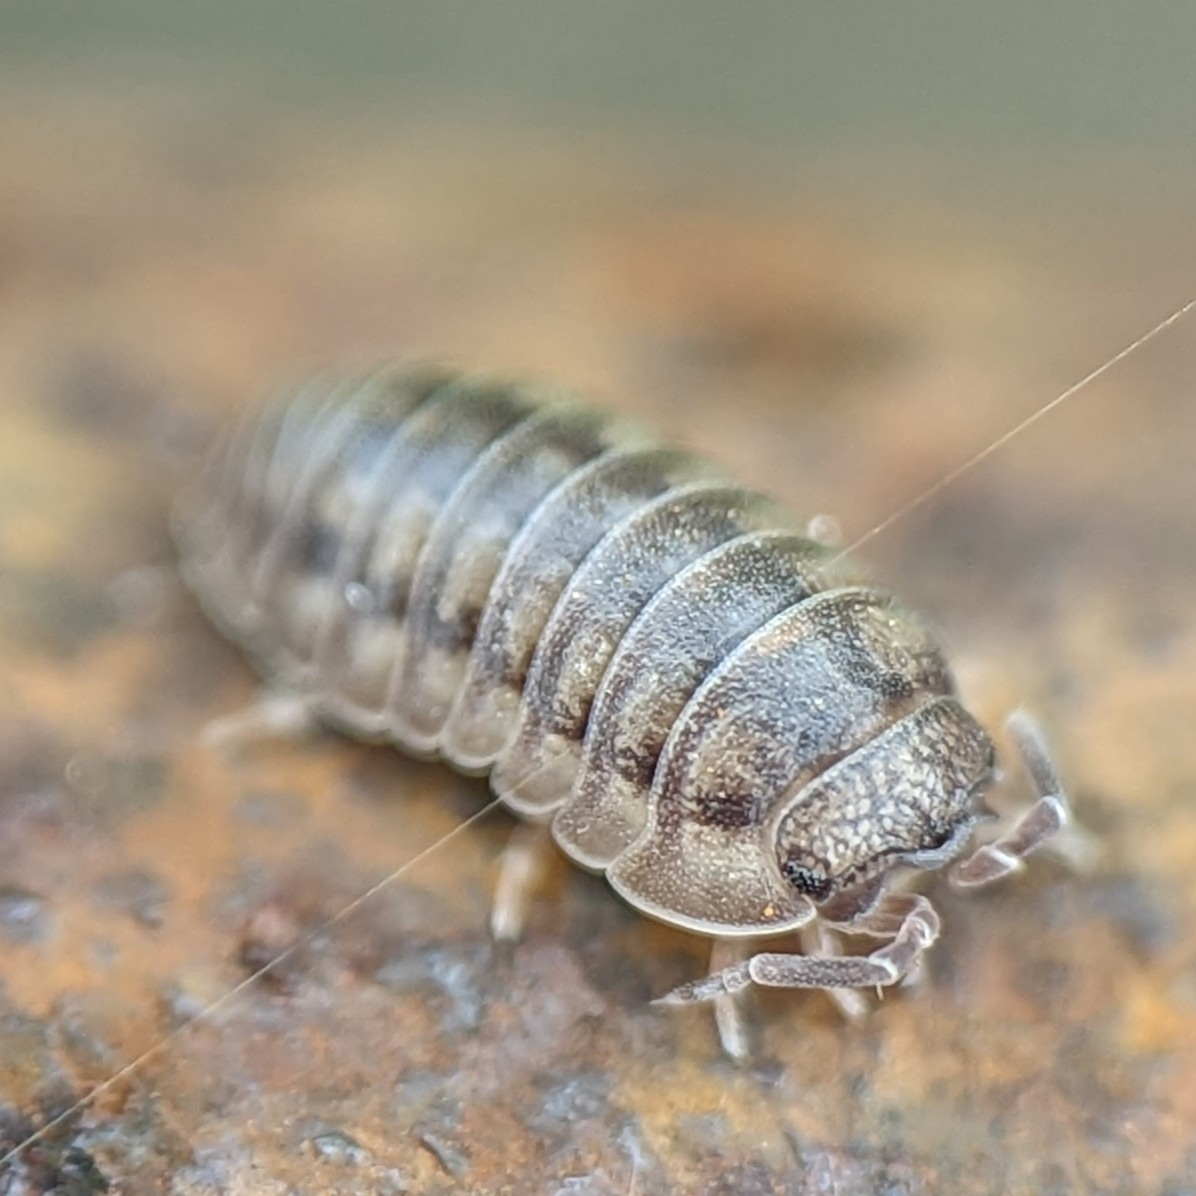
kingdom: Animalia
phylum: Arthropoda
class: Malacostraca
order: Isopoda
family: Armadillidiidae
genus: Armadillidium
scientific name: Armadillidium nasatum
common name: Isopod
